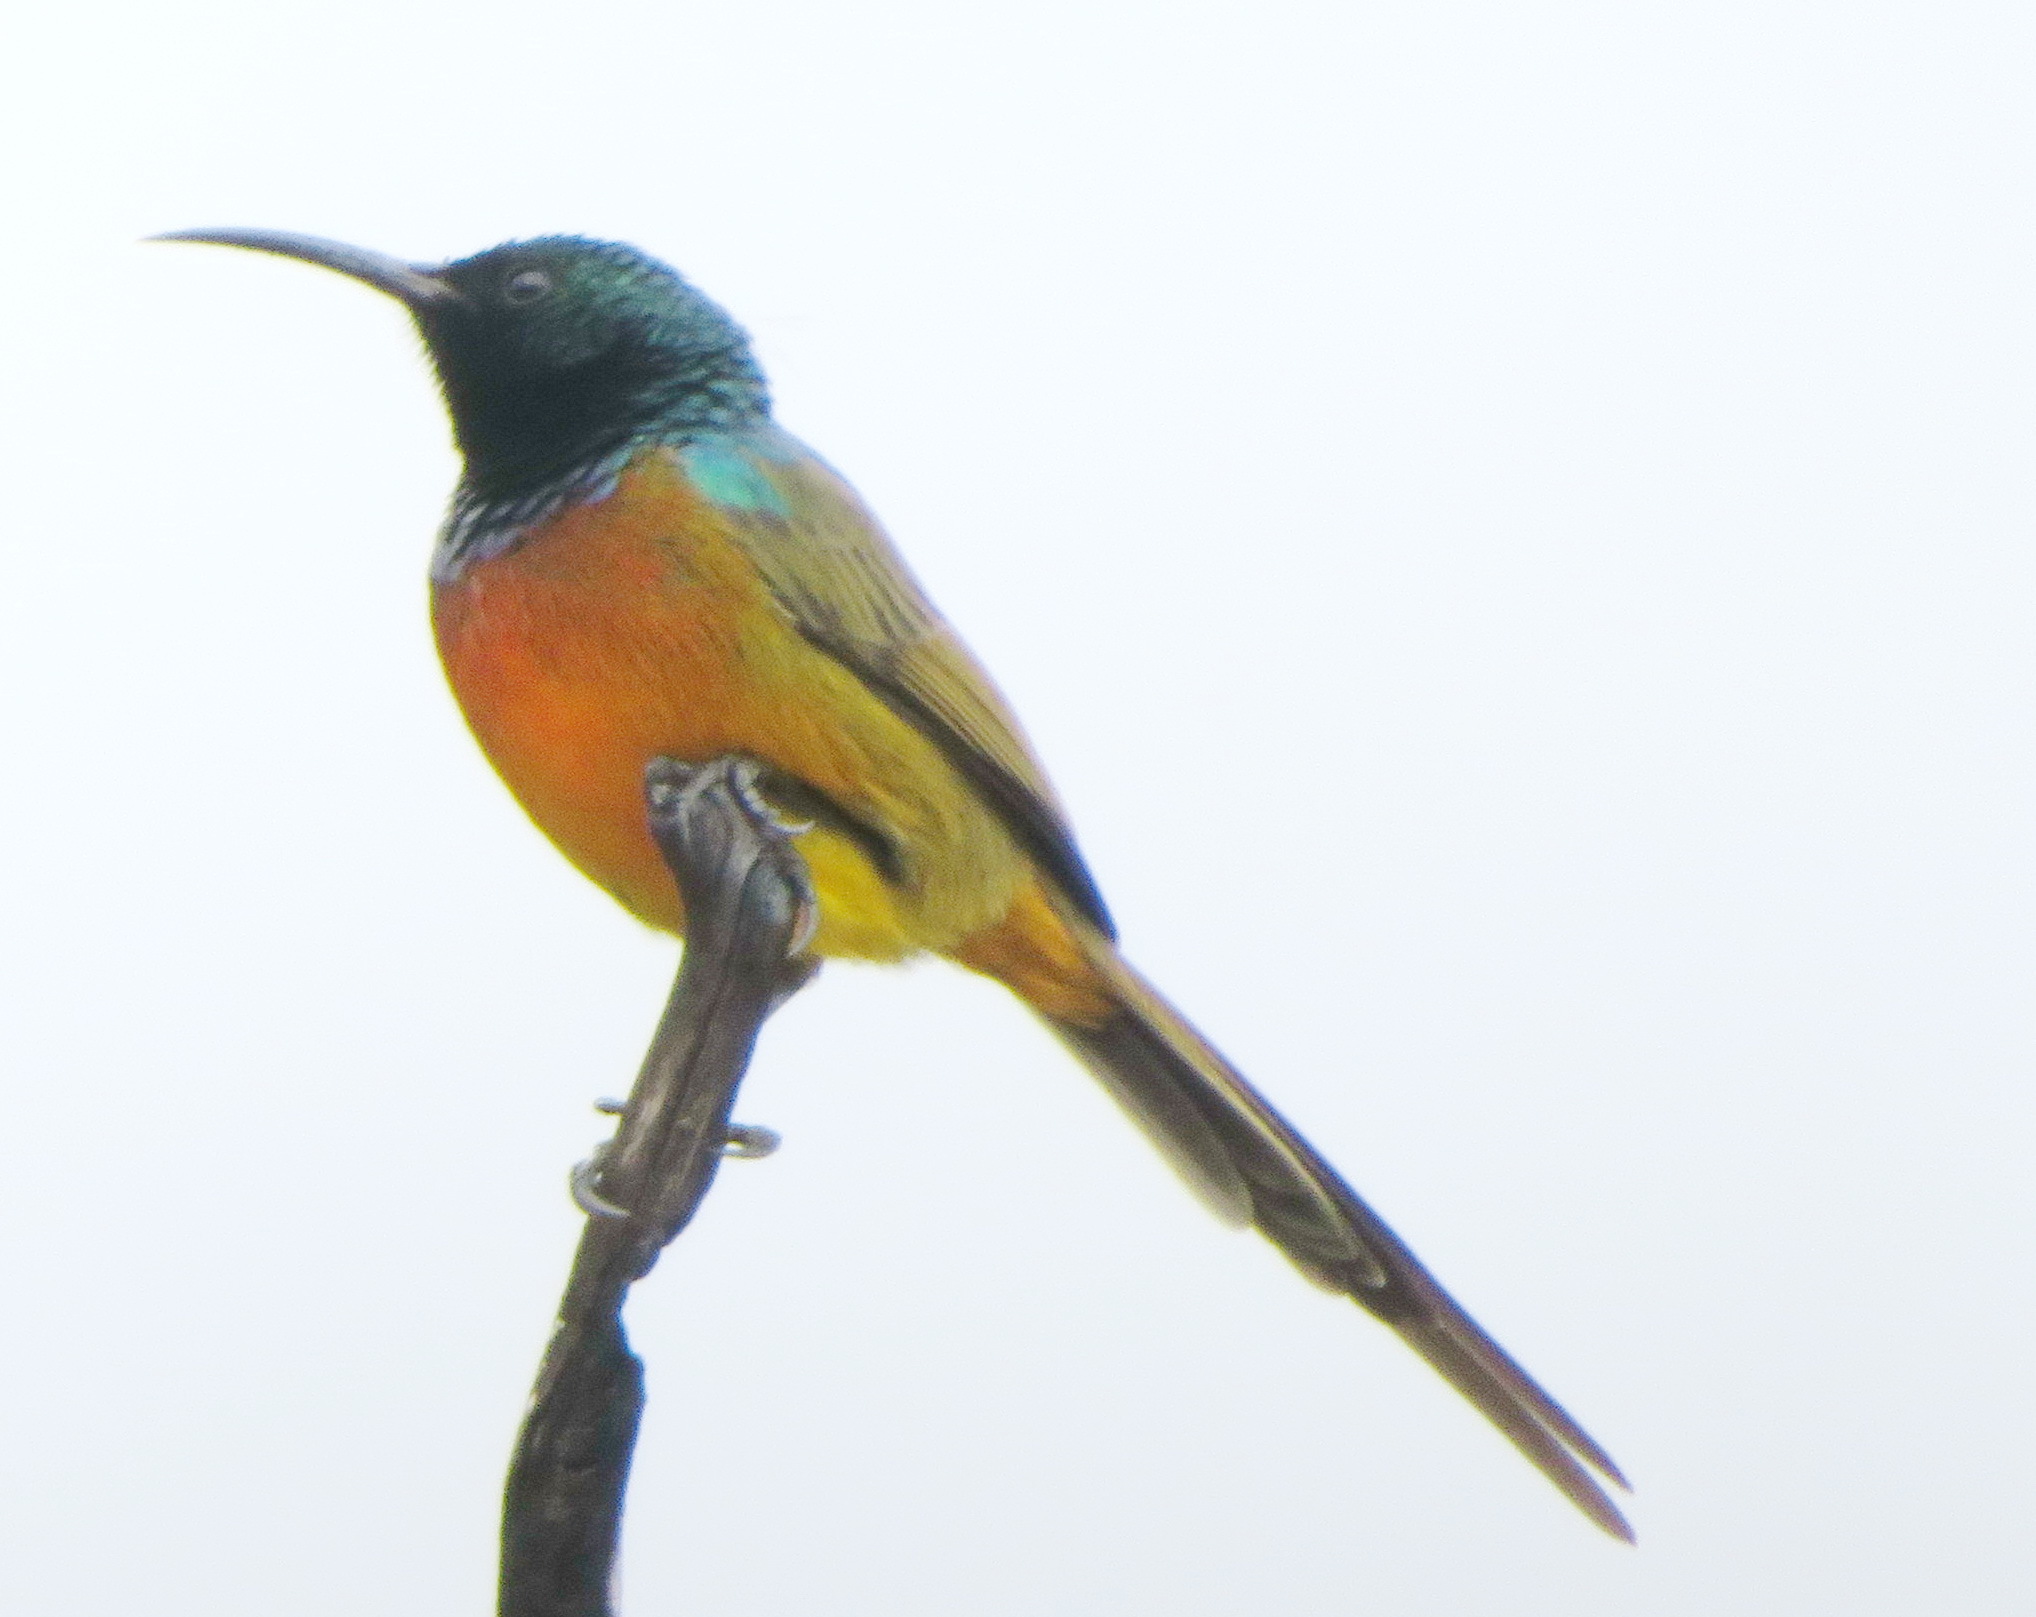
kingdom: Animalia
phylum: Chordata
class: Aves
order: Passeriformes
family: Nectariniidae
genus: Anthobaphes
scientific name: Anthobaphes violacea
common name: Orange-breasted sunbird
